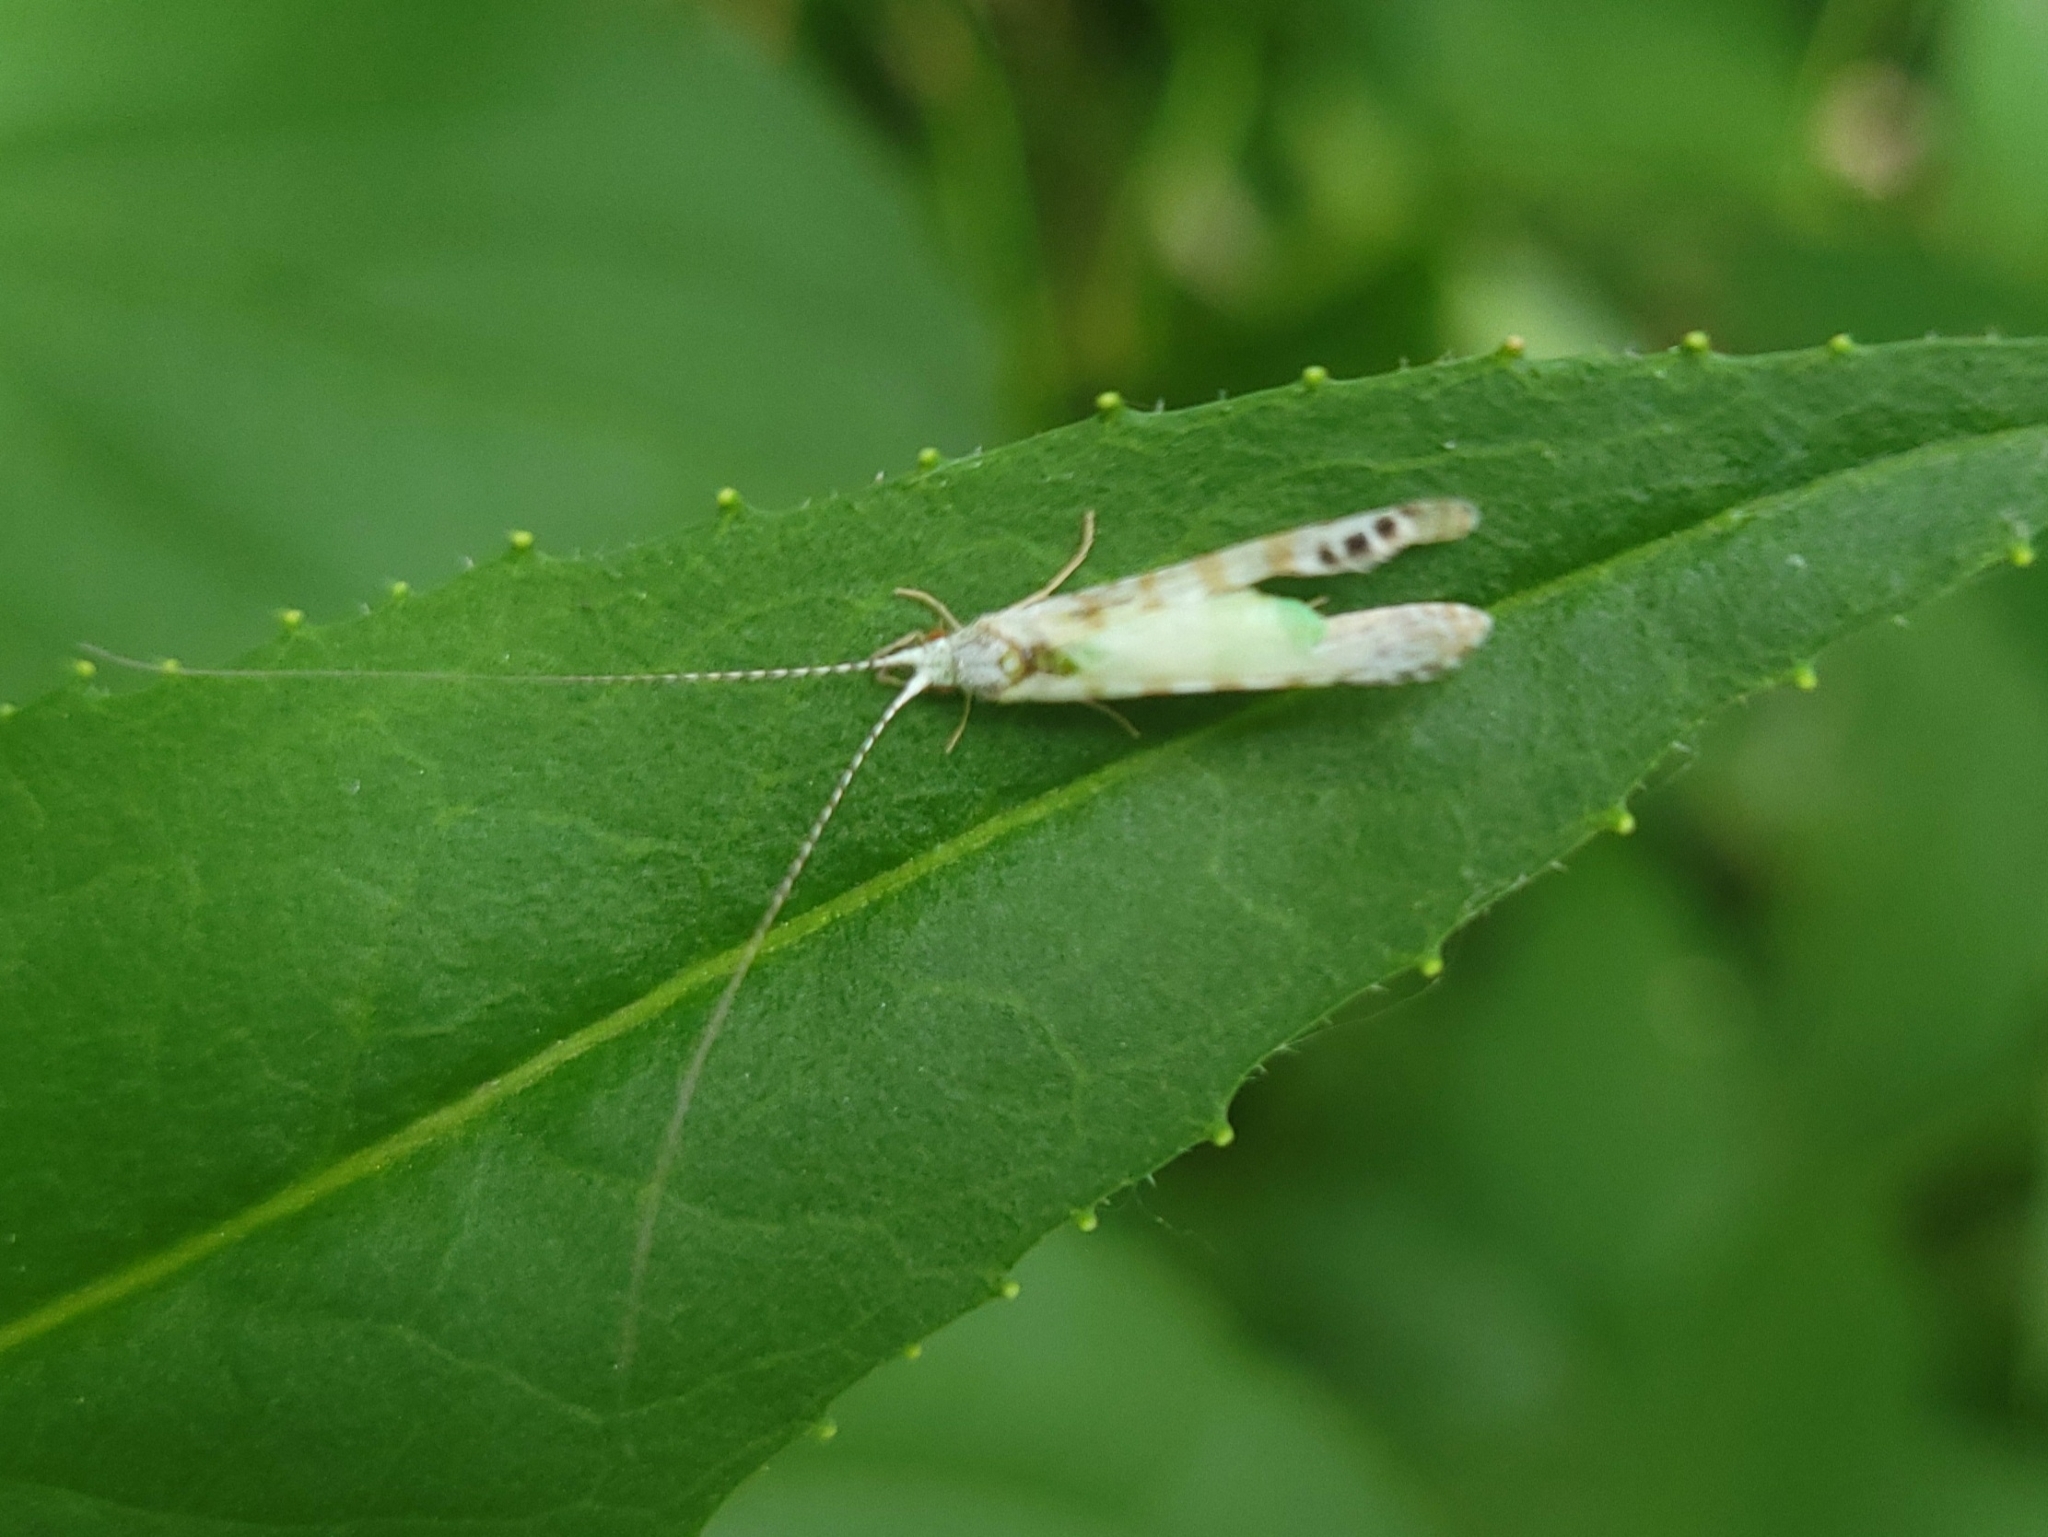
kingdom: Animalia
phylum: Arthropoda
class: Insecta
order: Trichoptera
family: Leptoceridae
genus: Nectopsyche
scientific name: Nectopsyche exquisita
